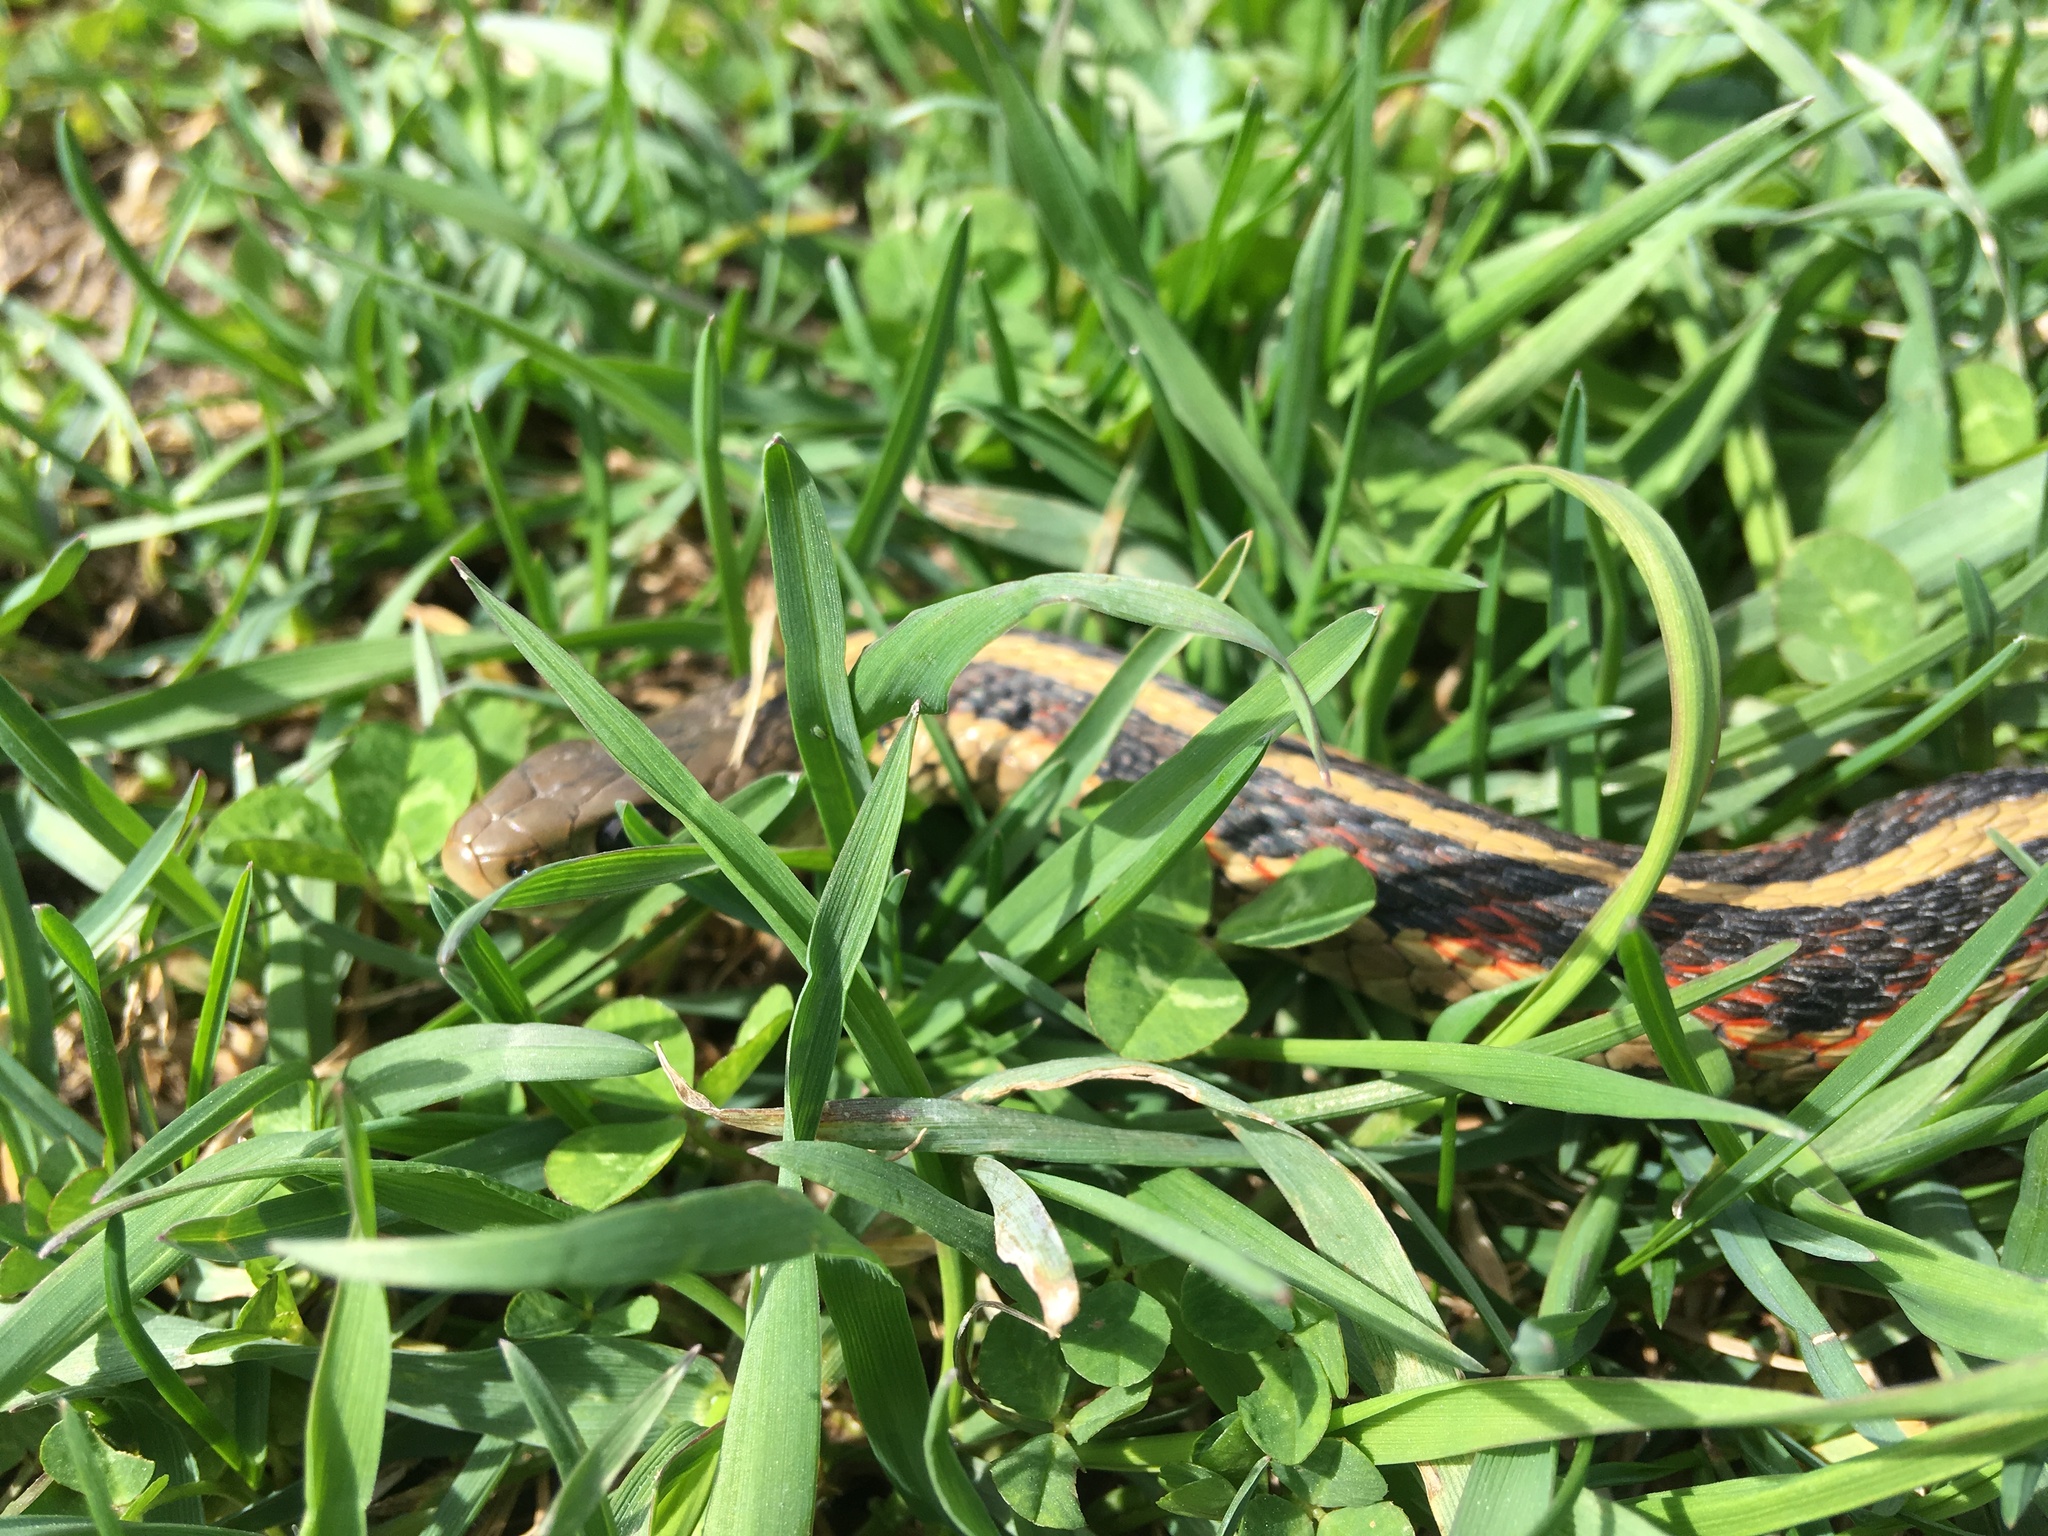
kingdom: Animalia
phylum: Chordata
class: Squamata
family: Colubridae
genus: Thamnophis
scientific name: Thamnophis sirtalis
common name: Common garter snake
